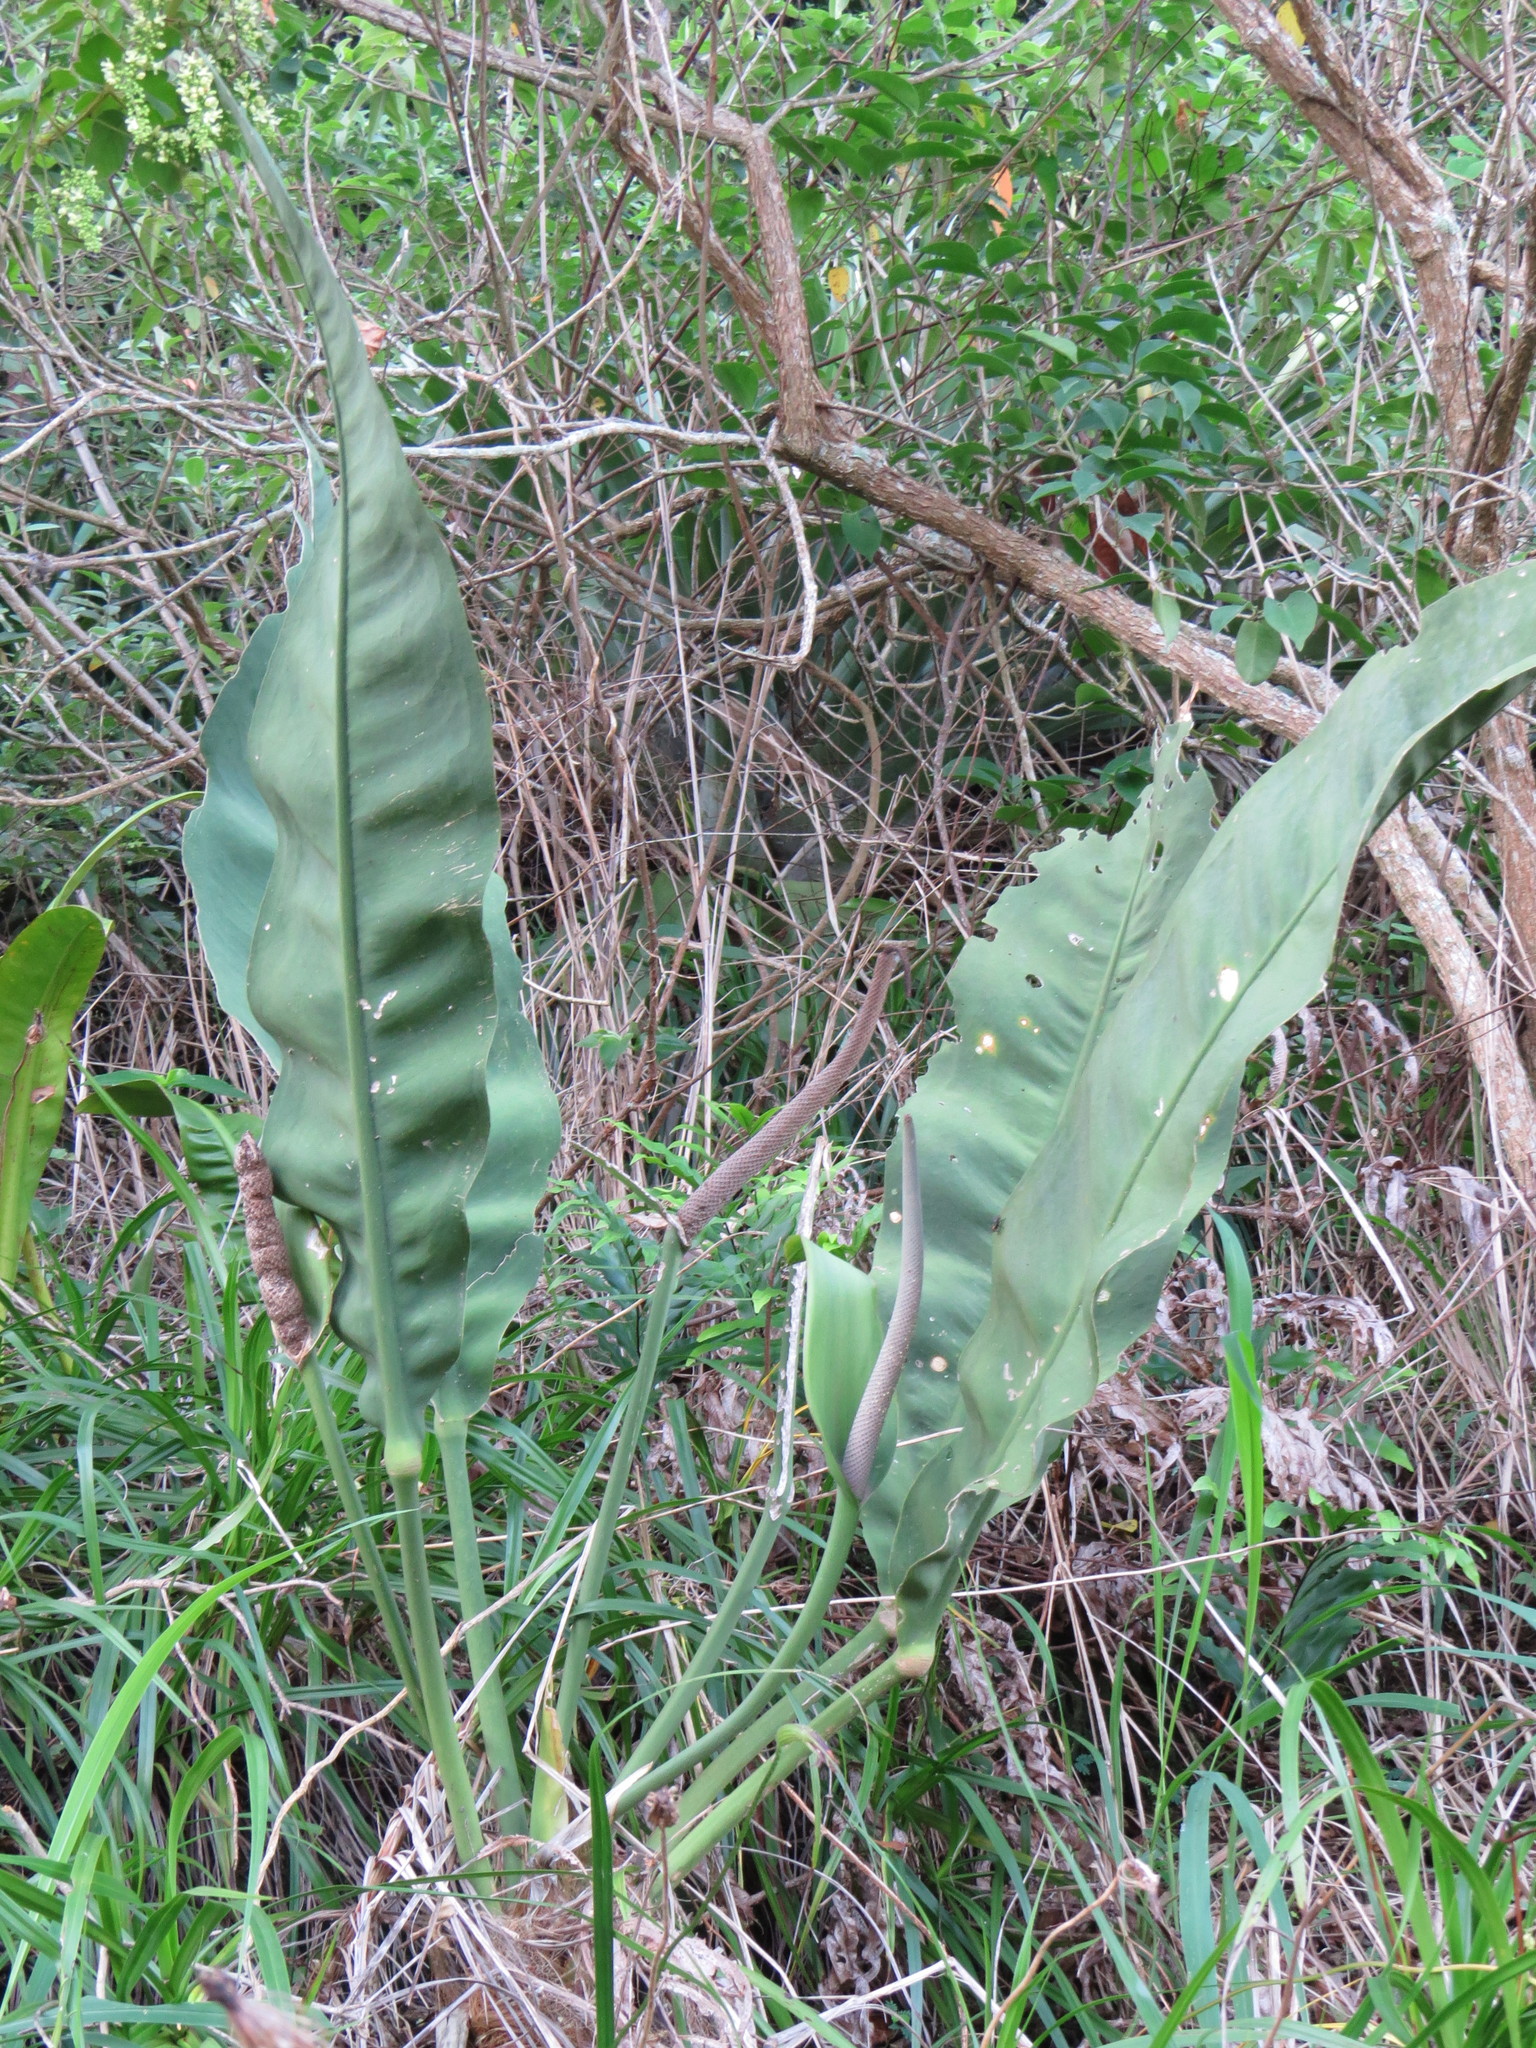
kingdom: Plantae
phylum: Tracheophyta
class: Liliopsida
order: Alismatales
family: Araceae
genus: Anthurium
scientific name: Anthurium coriaceum
